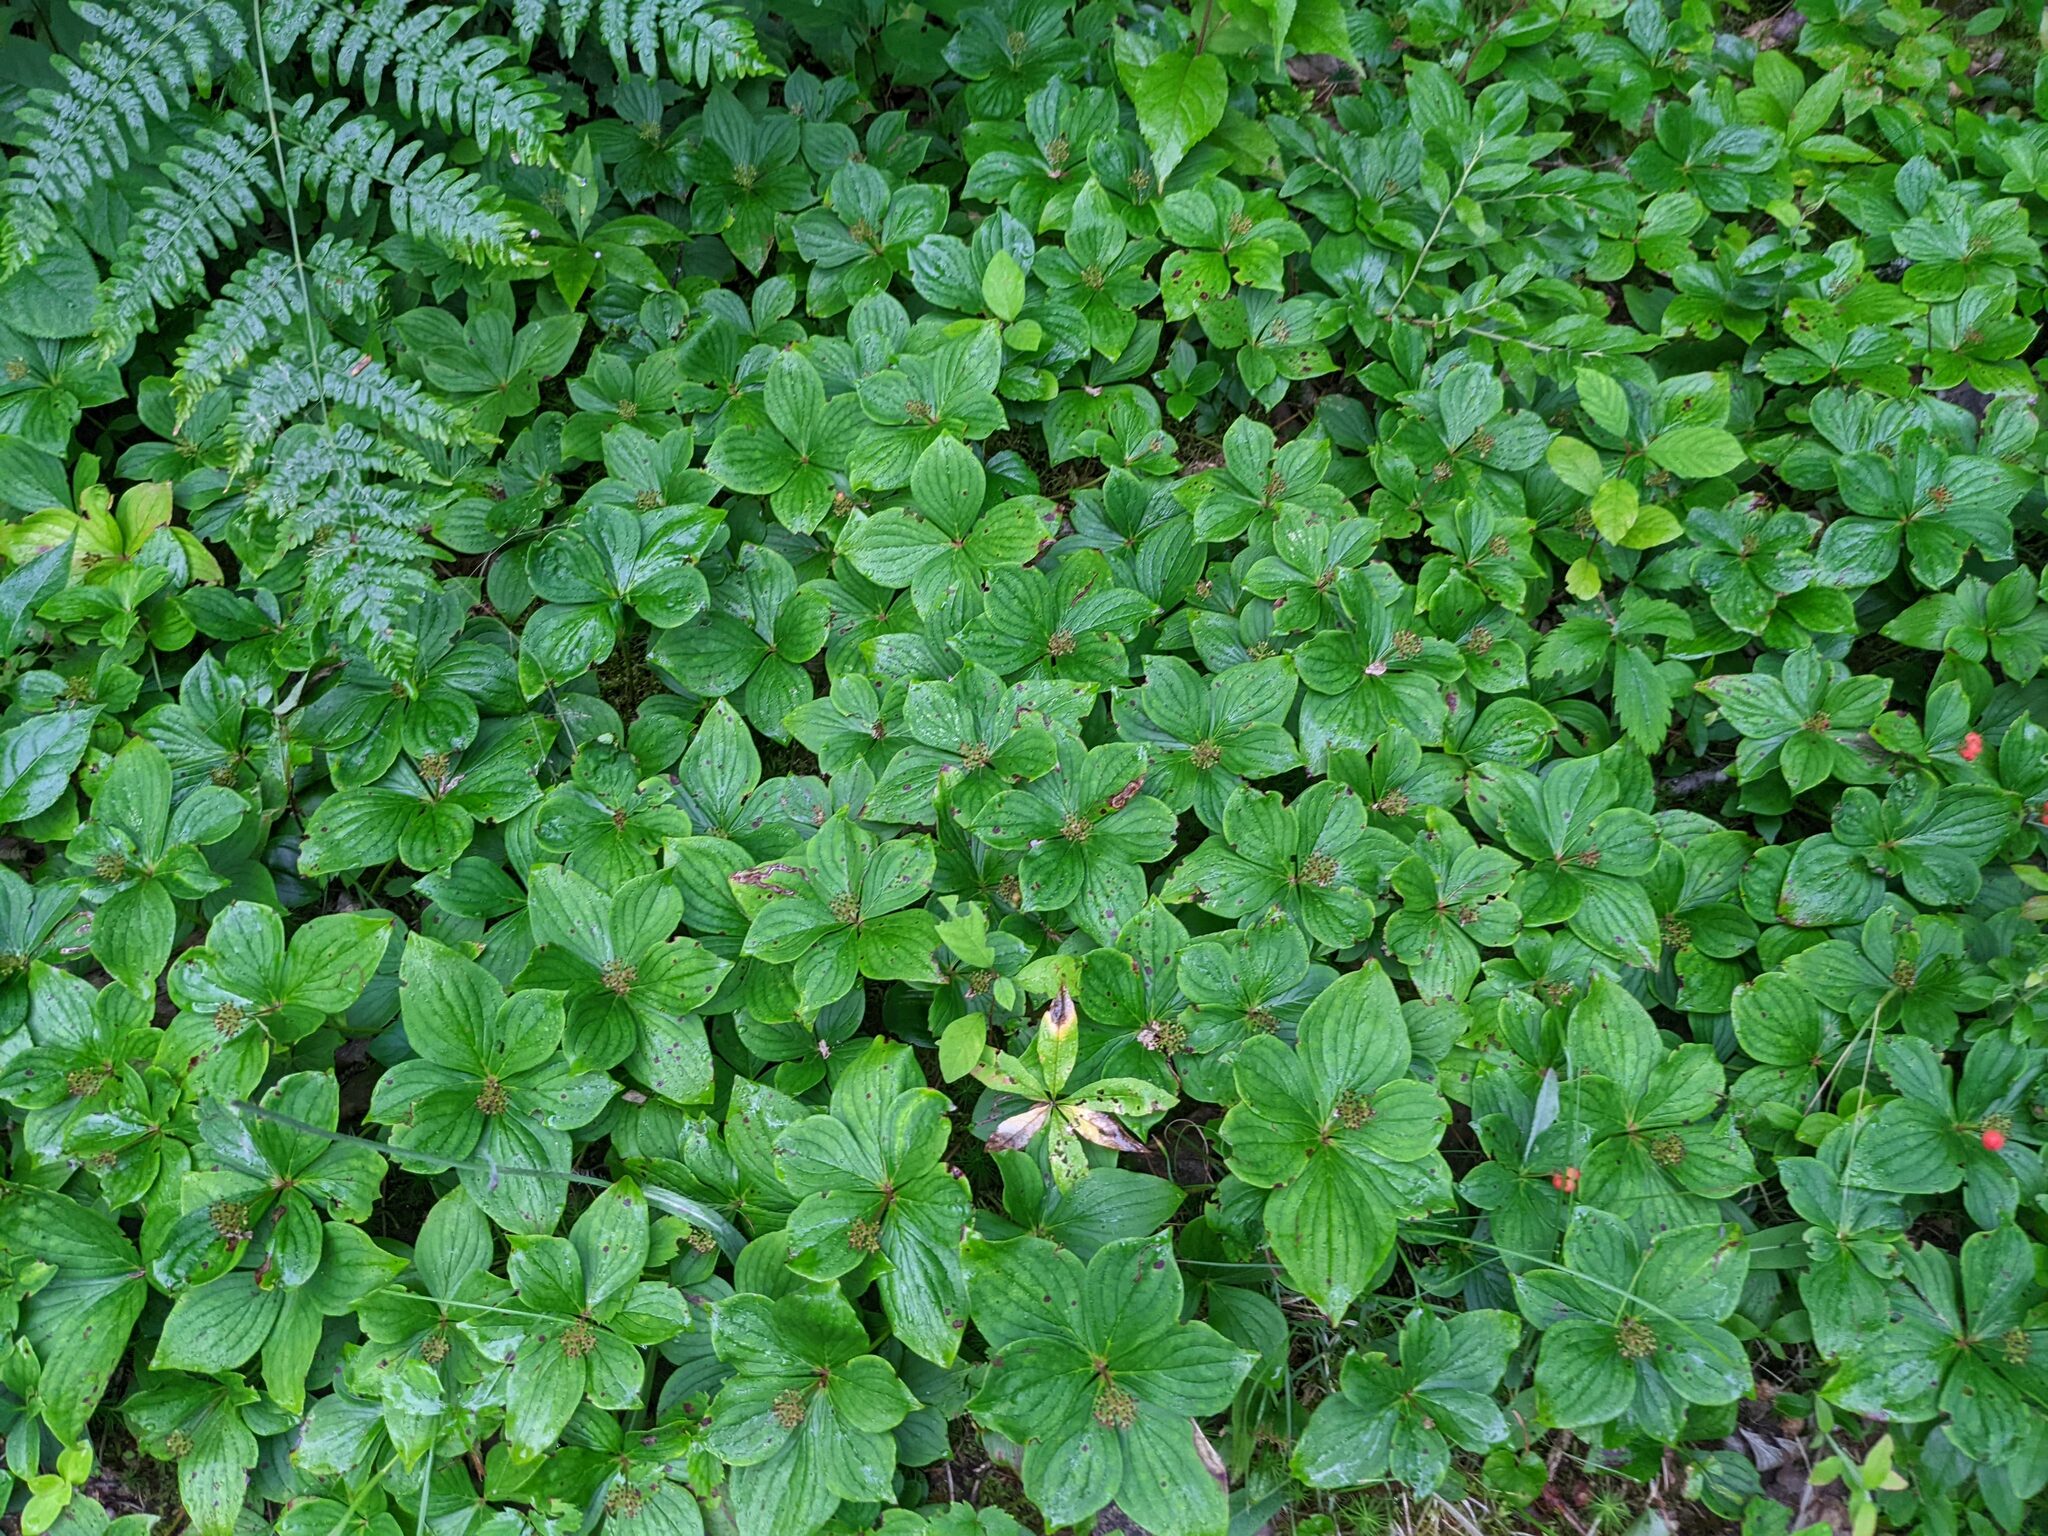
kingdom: Plantae
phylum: Tracheophyta
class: Magnoliopsida
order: Cornales
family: Cornaceae
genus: Cornus
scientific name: Cornus canadensis
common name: Creeping dogwood
